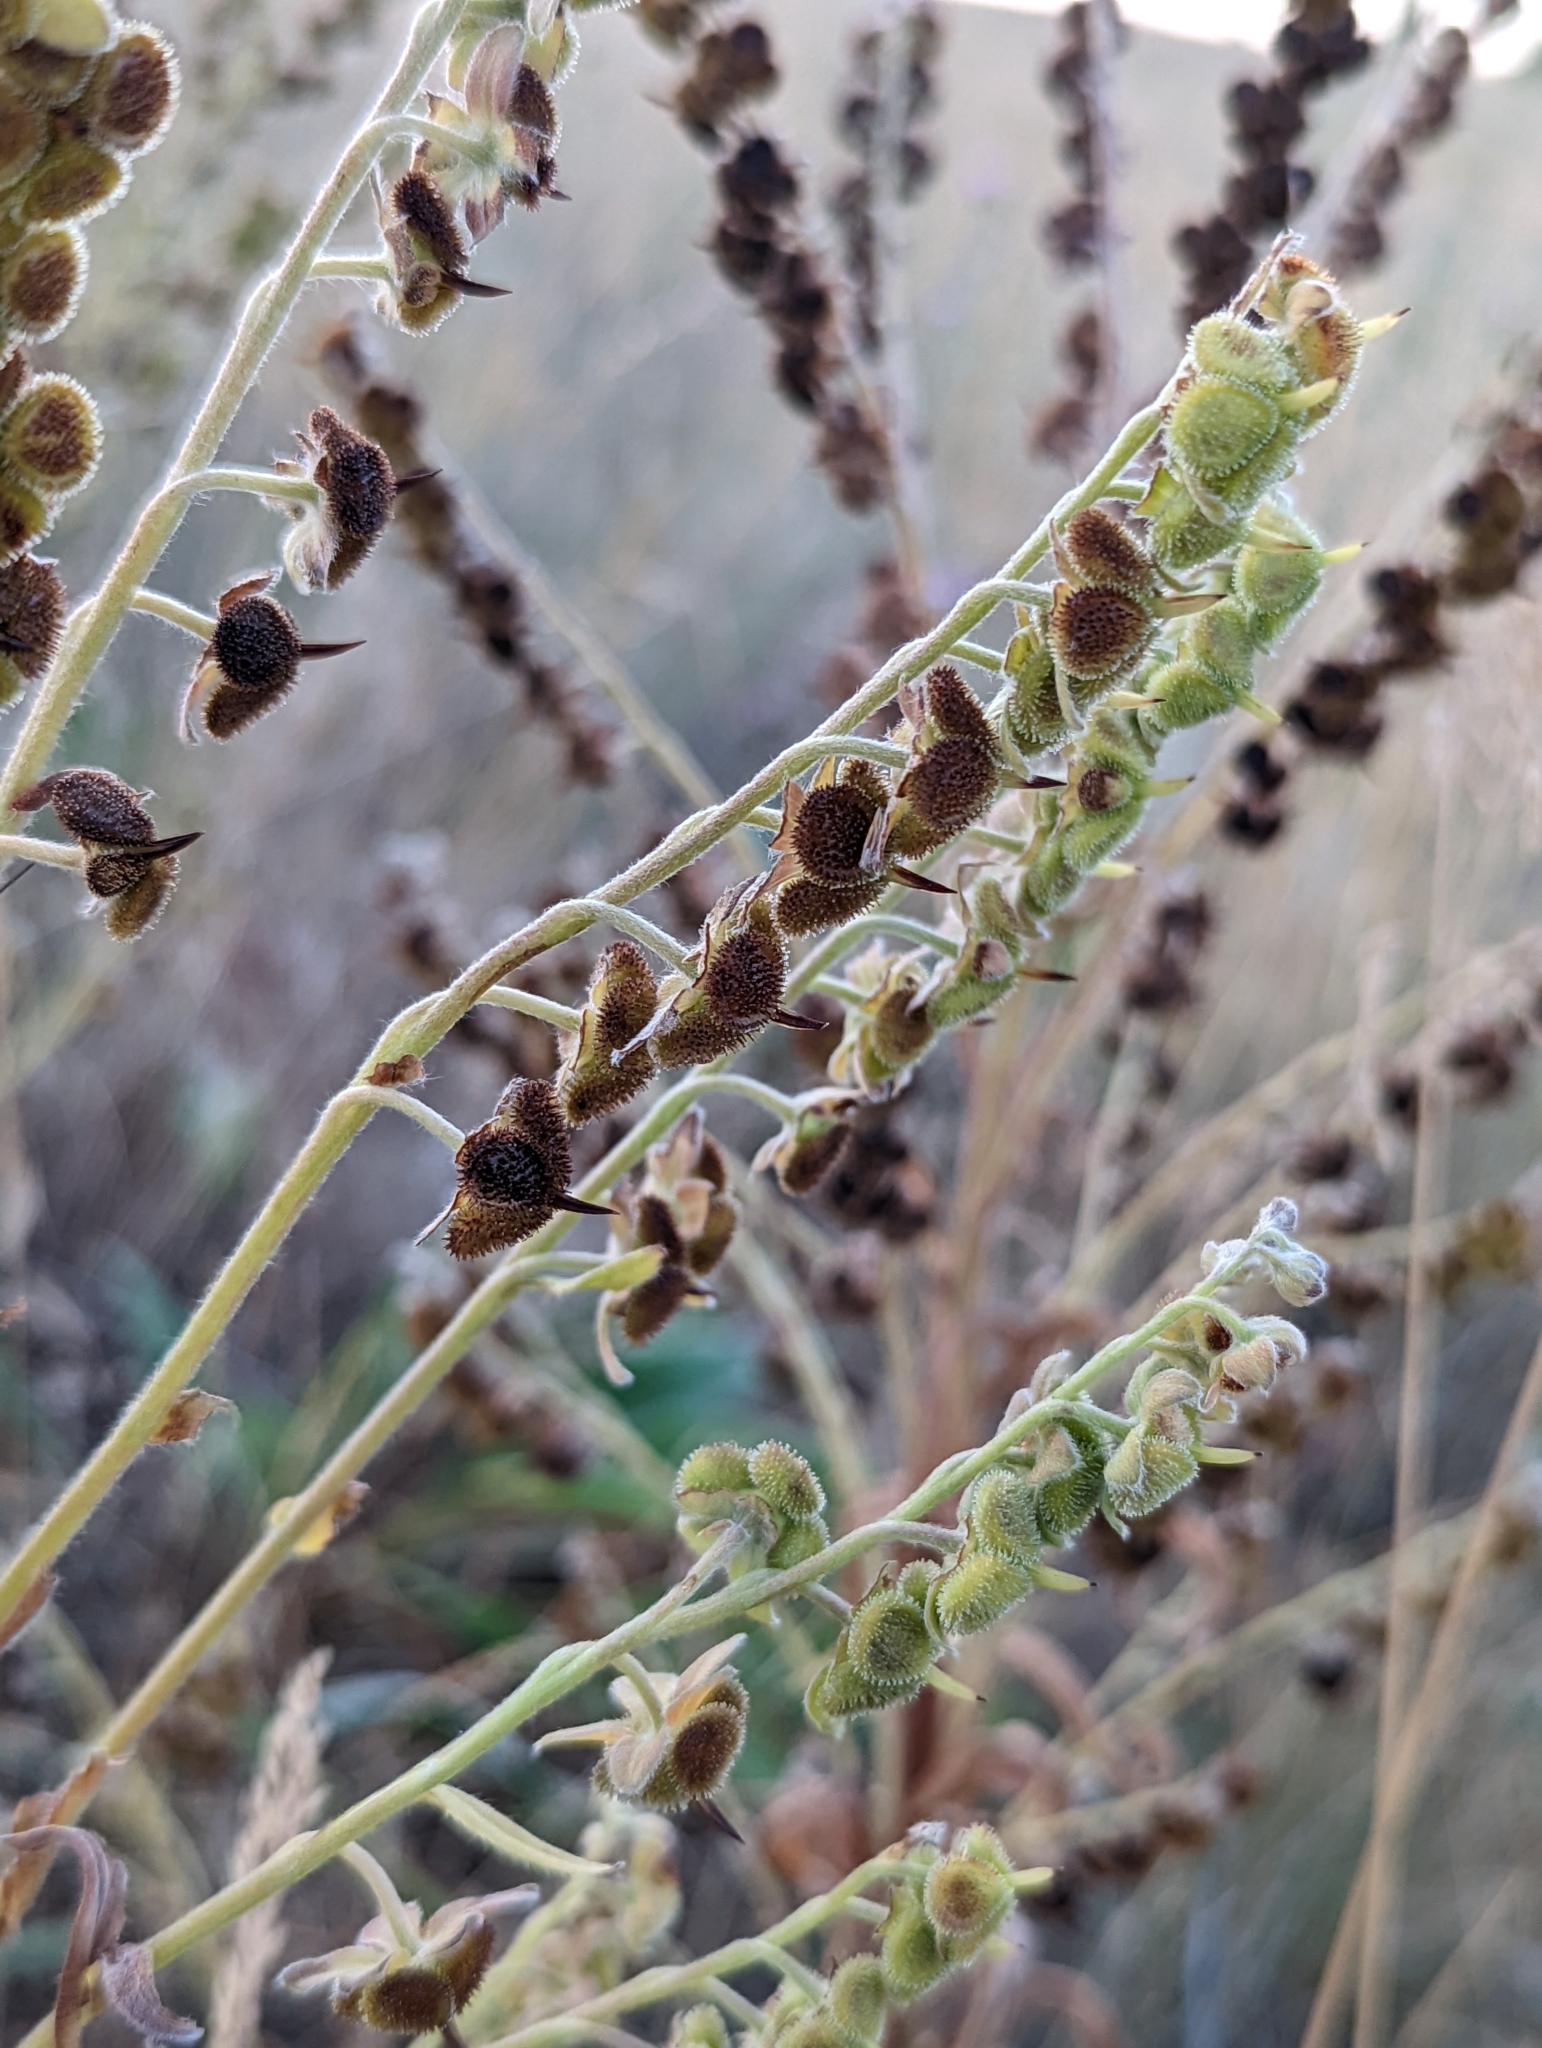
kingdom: Plantae
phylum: Tracheophyta
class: Magnoliopsida
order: Boraginales
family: Boraginaceae
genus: Cynoglossum
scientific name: Cynoglossum officinale
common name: Hound's-tongue
